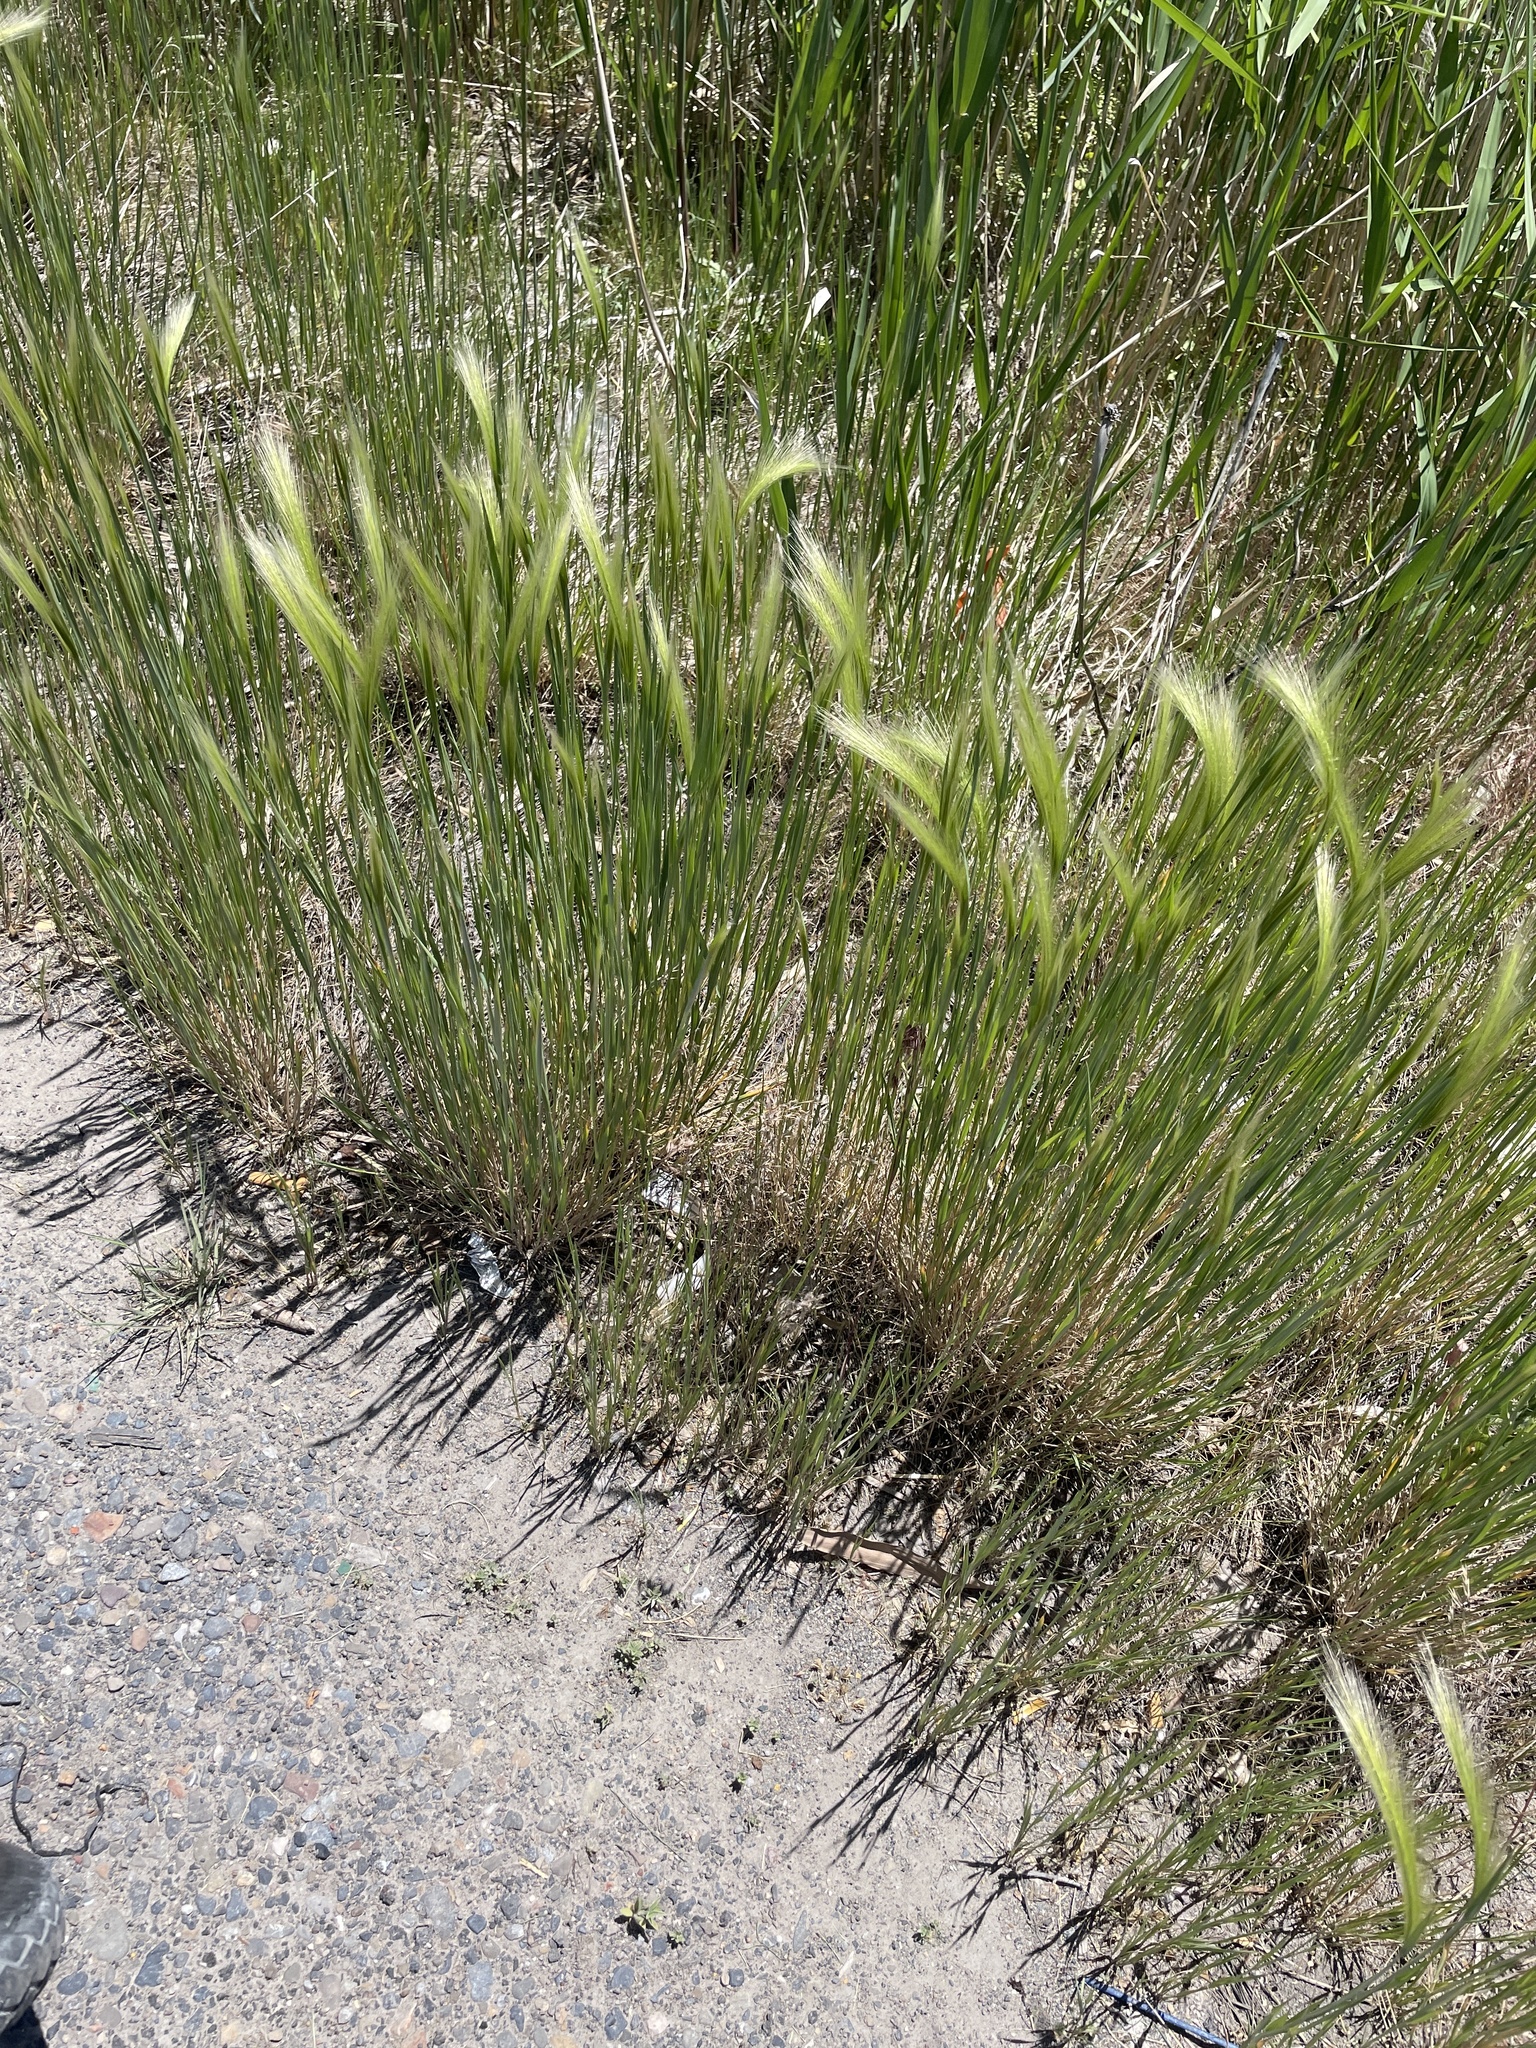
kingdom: Plantae
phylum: Tracheophyta
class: Liliopsida
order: Poales
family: Poaceae
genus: Hordeum
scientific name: Hordeum jubatum
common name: Foxtail barley
